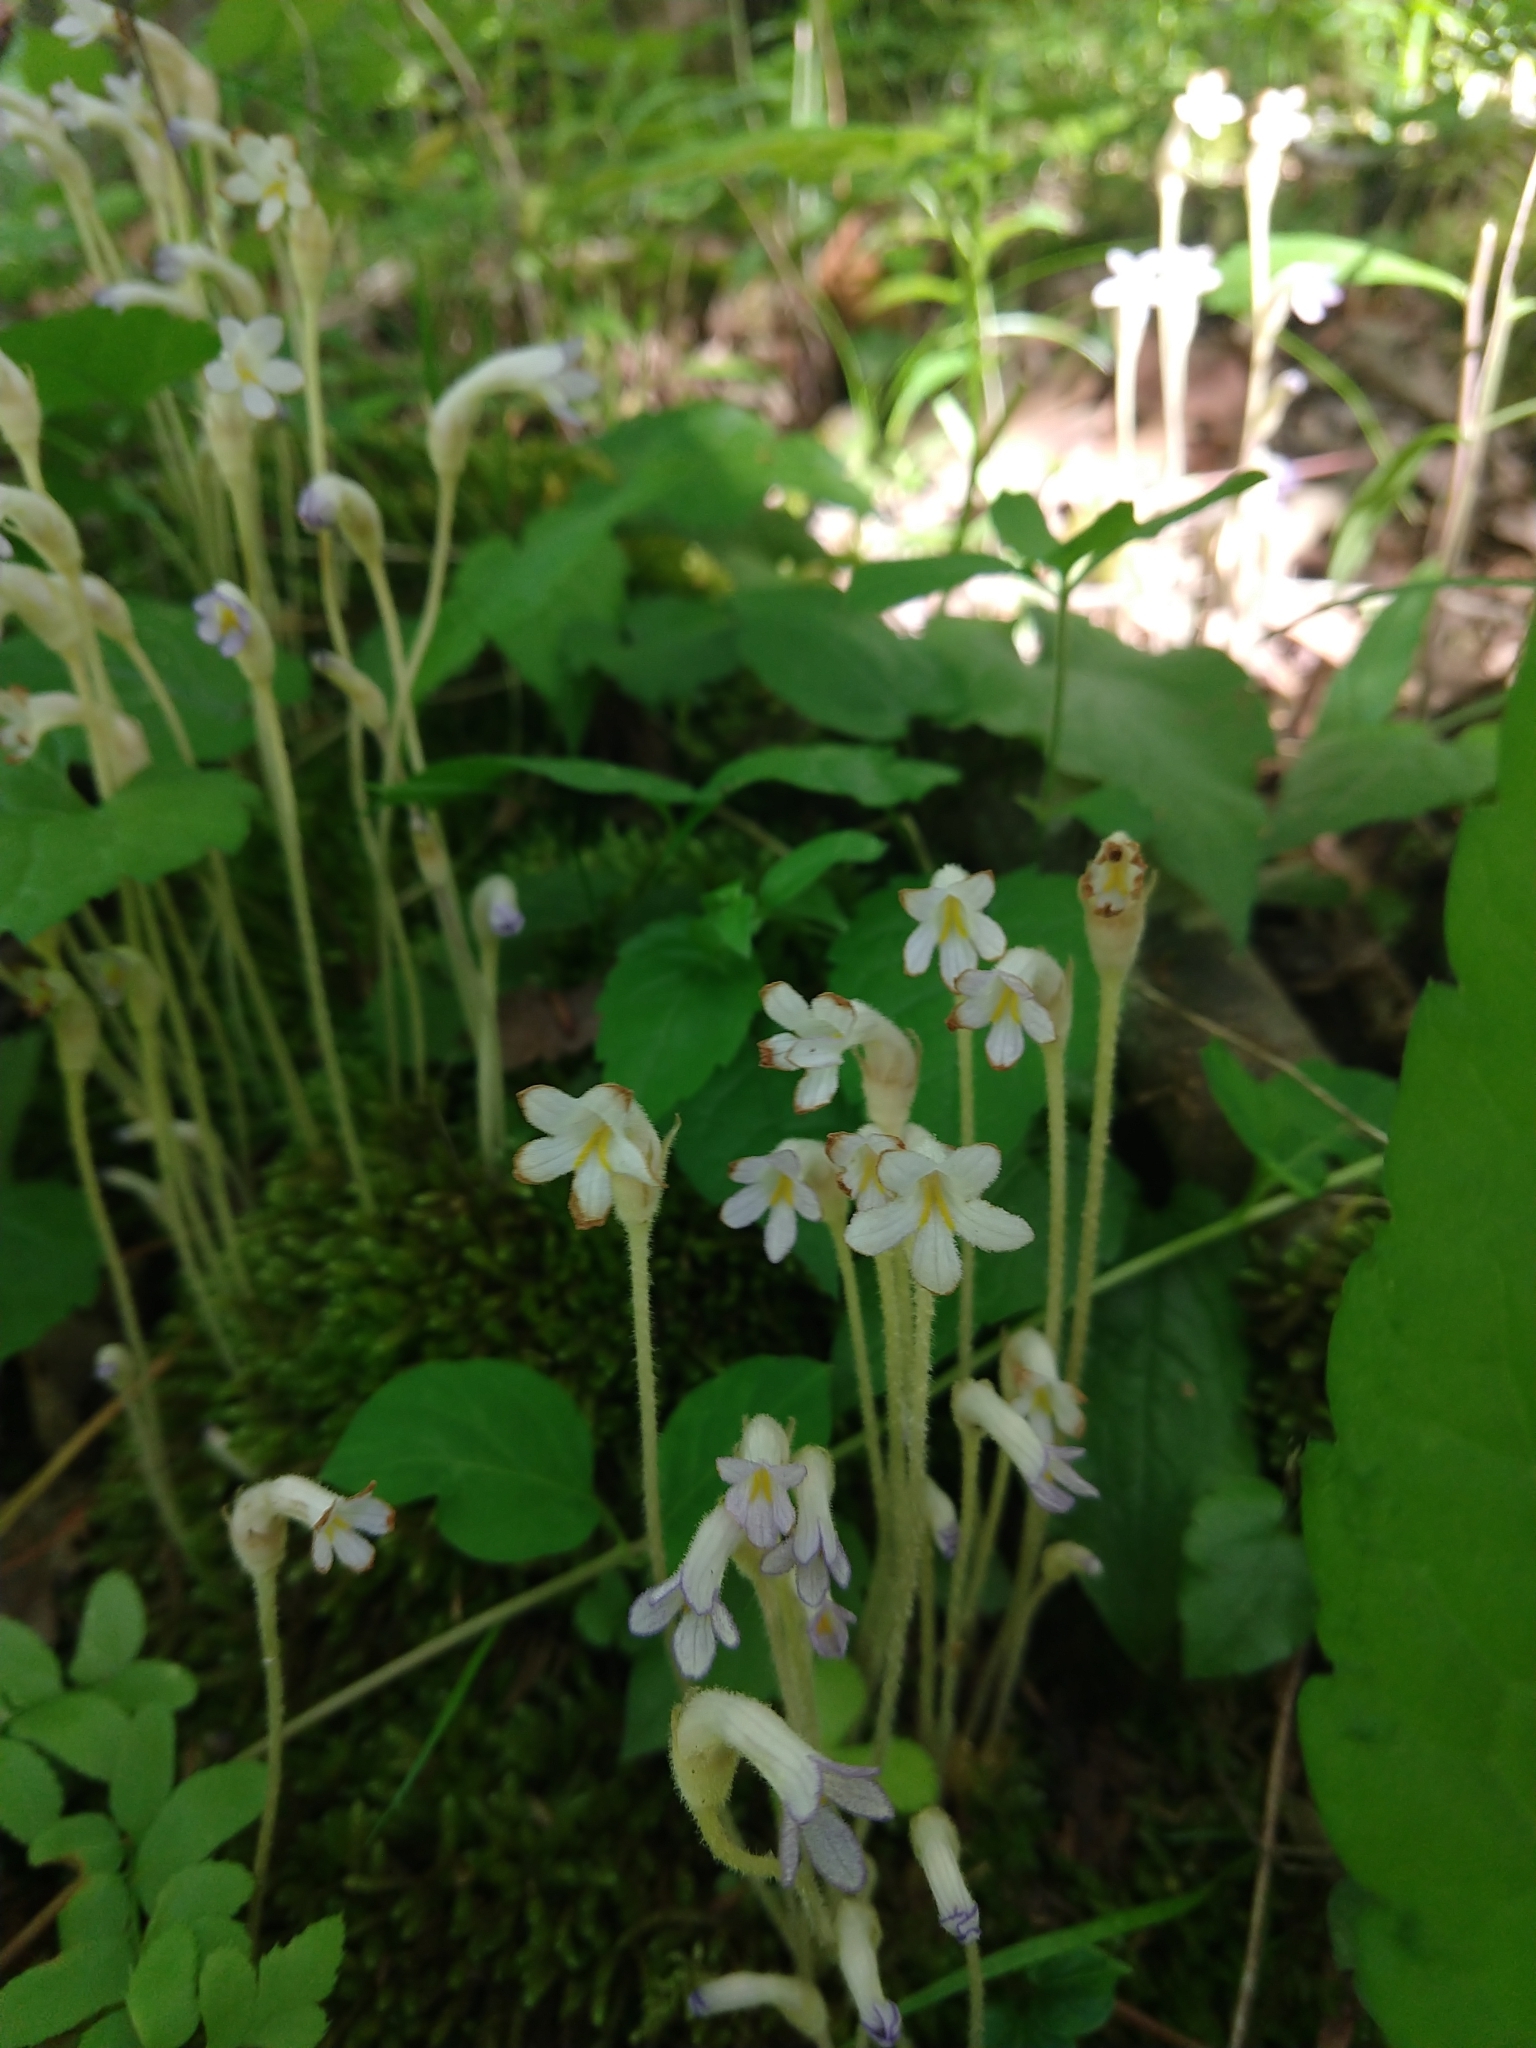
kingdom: Plantae
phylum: Tracheophyta
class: Magnoliopsida
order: Lamiales
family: Orobanchaceae
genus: Aphyllon
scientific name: Aphyllon uniflorum
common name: One-flowered broomrape
